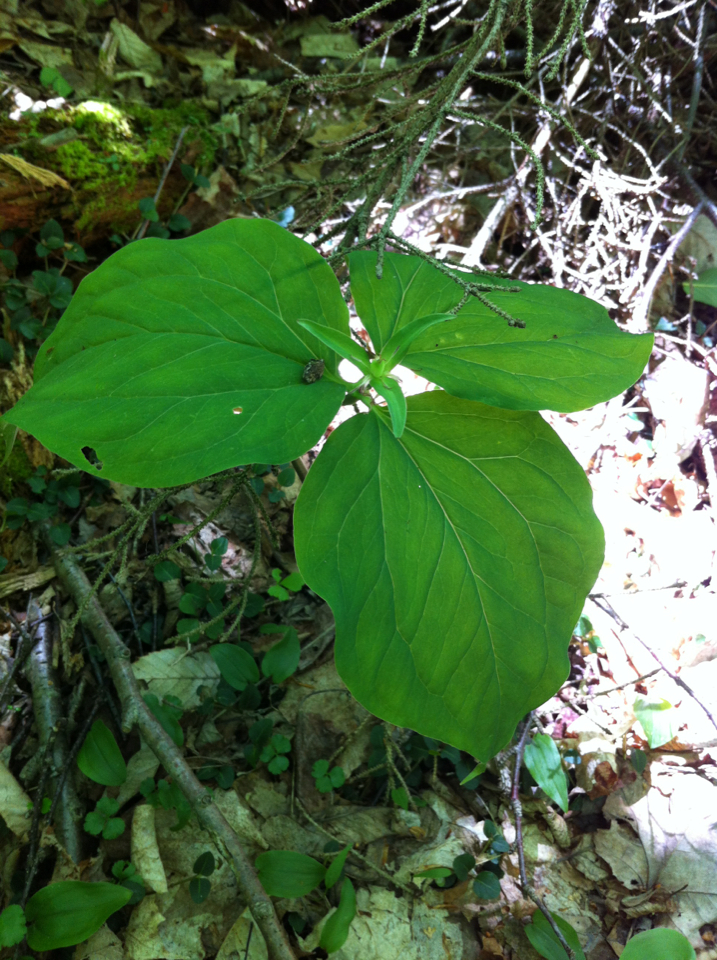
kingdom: Plantae
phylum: Tracheophyta
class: Liliopsida
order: Liliales
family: Melanthiaceae
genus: Trillium
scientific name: Trillium undulatum
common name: Paint trillium
